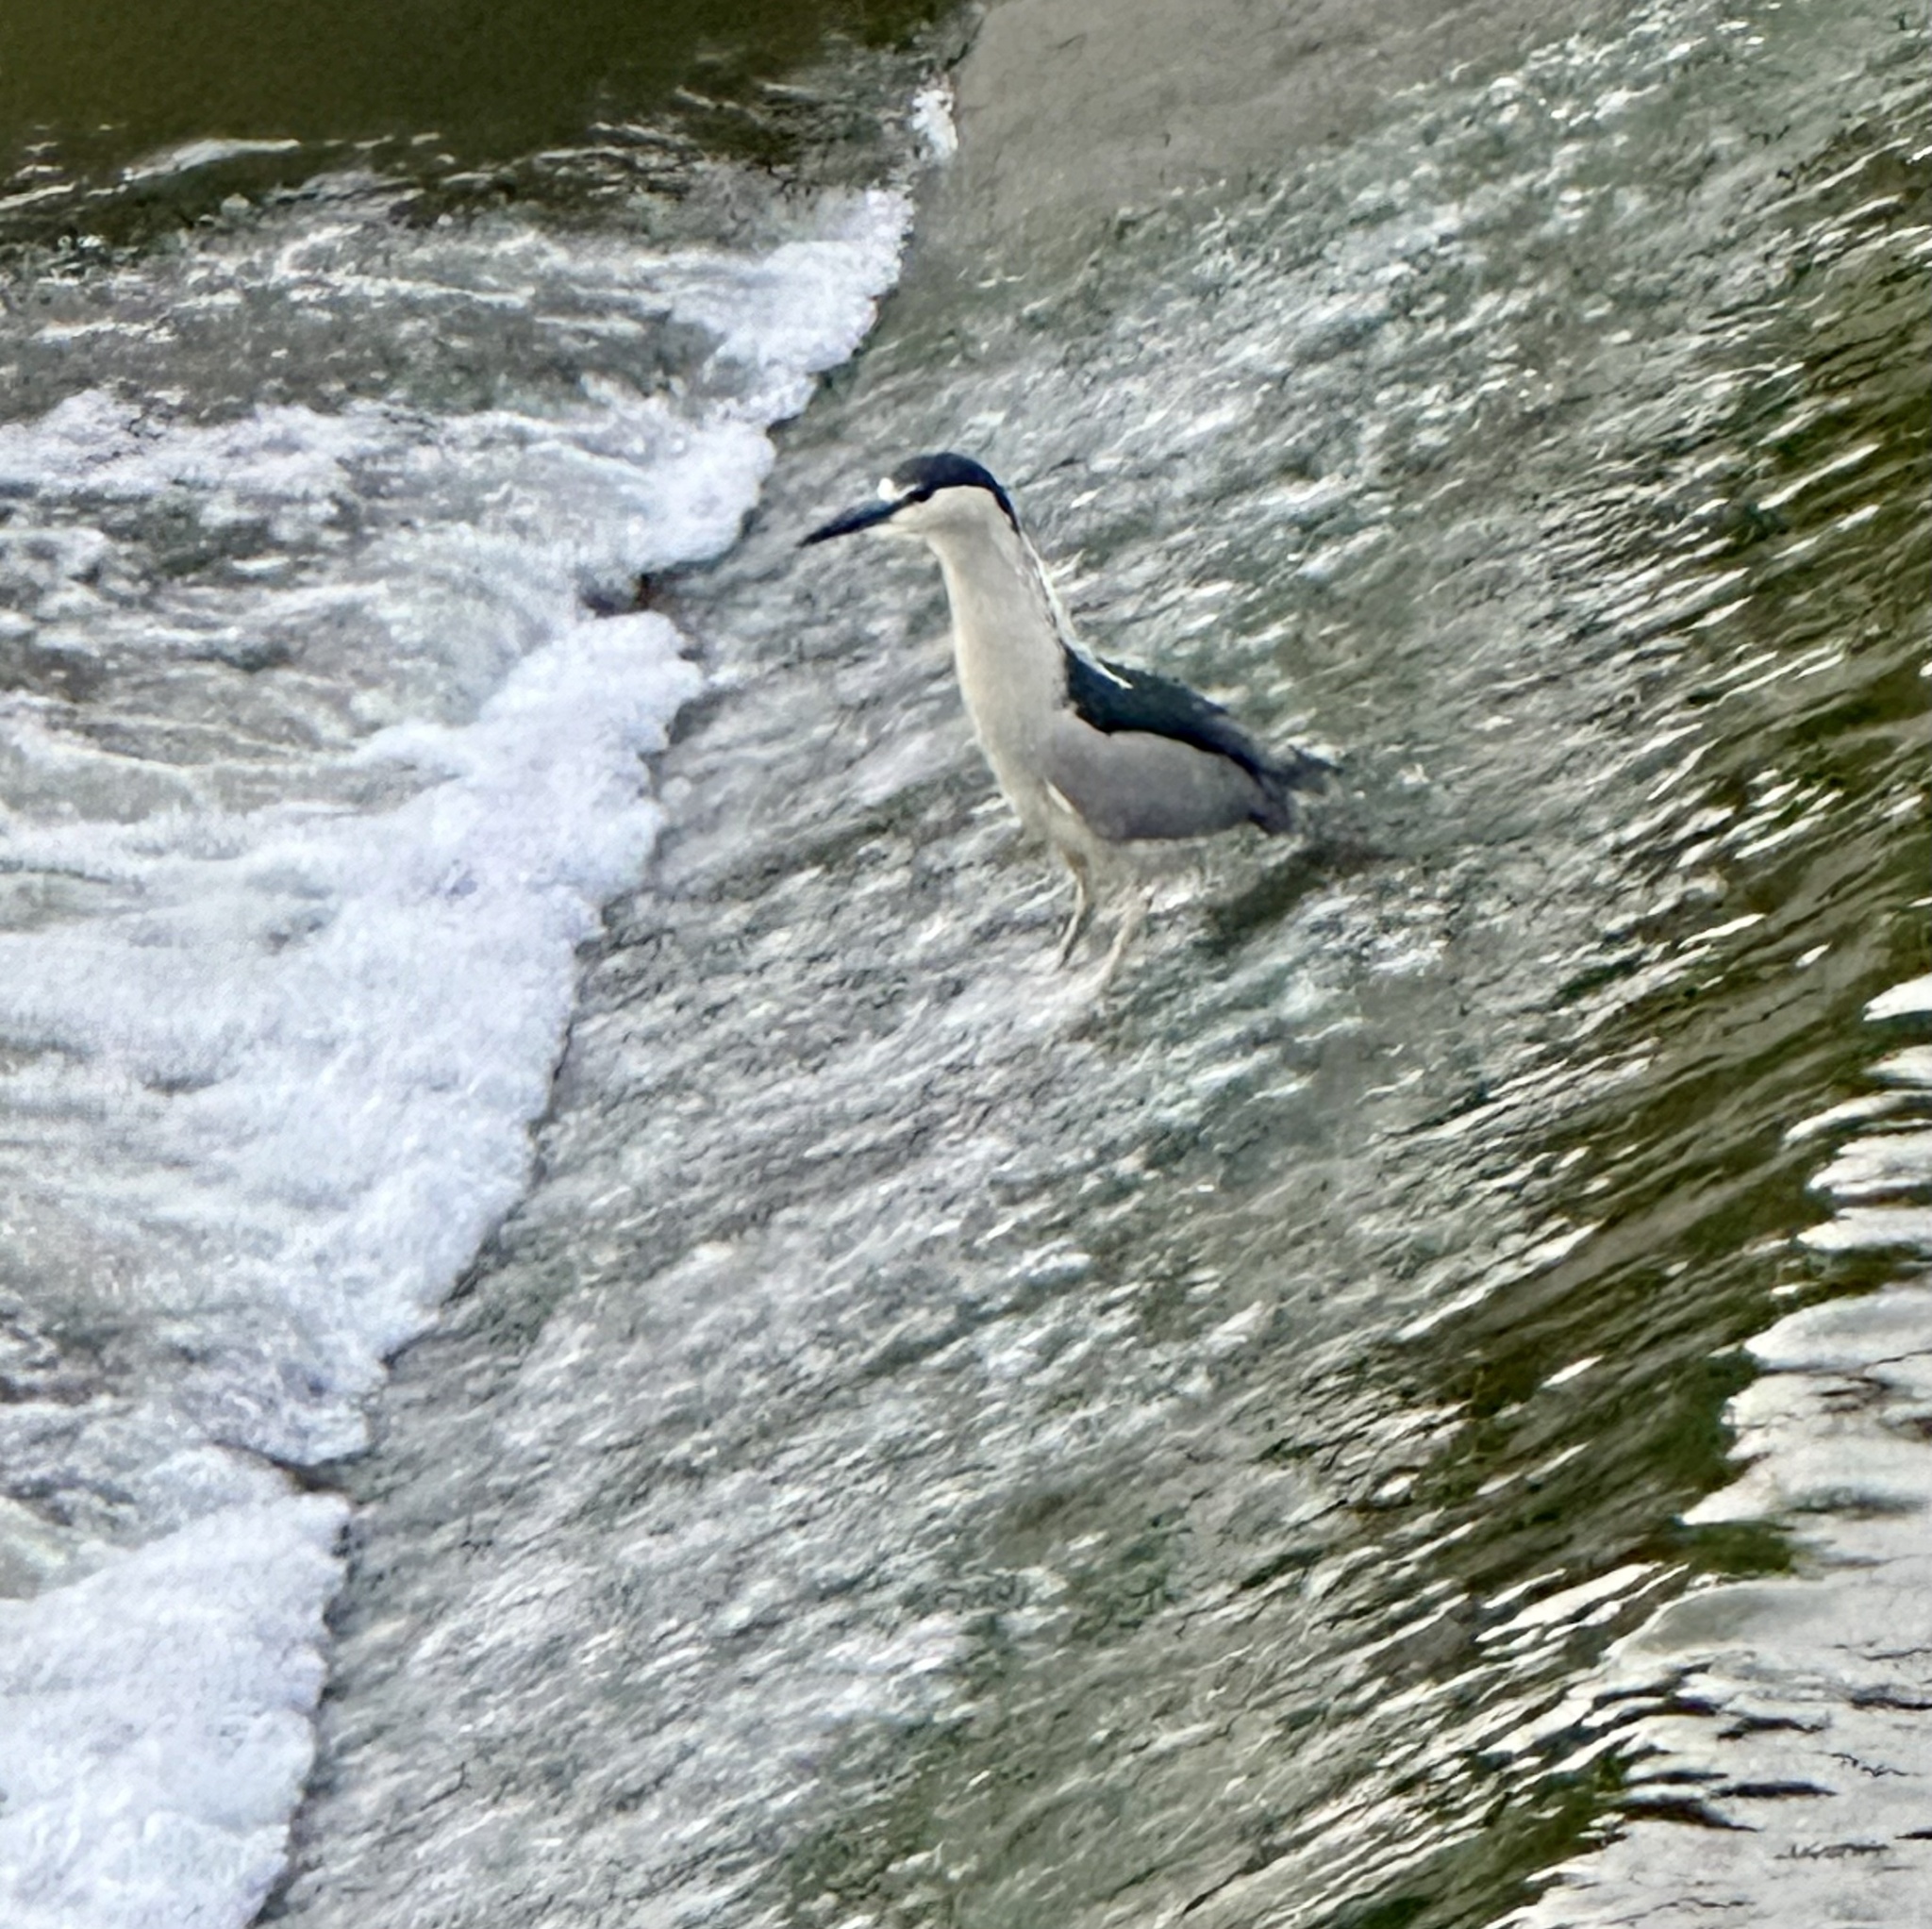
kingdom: Animalia
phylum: Chordata
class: Aves
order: Pelecaniformes
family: Ardeidae
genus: Nycticorax
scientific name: Nycticorax nycticorax
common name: Black-crowned night heron
